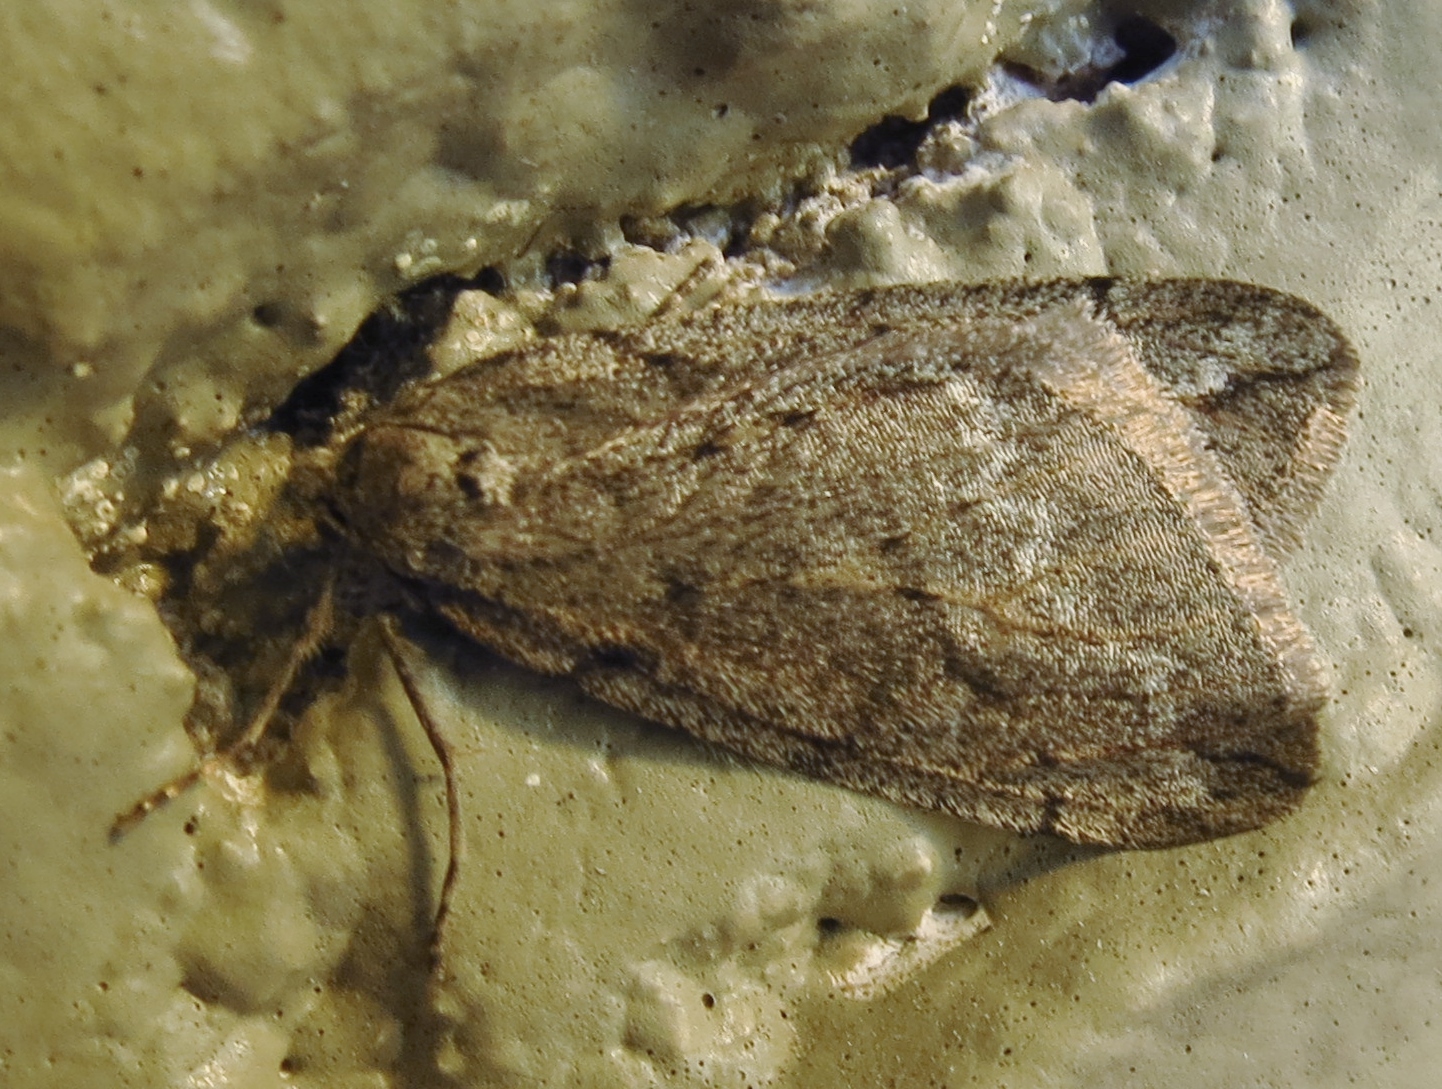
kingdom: Animalia
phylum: Arthropoda
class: Insecta
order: Lepidoptera
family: Geometridae
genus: Paleacrita
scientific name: Paleacrita vernata
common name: Spring cankerworm
